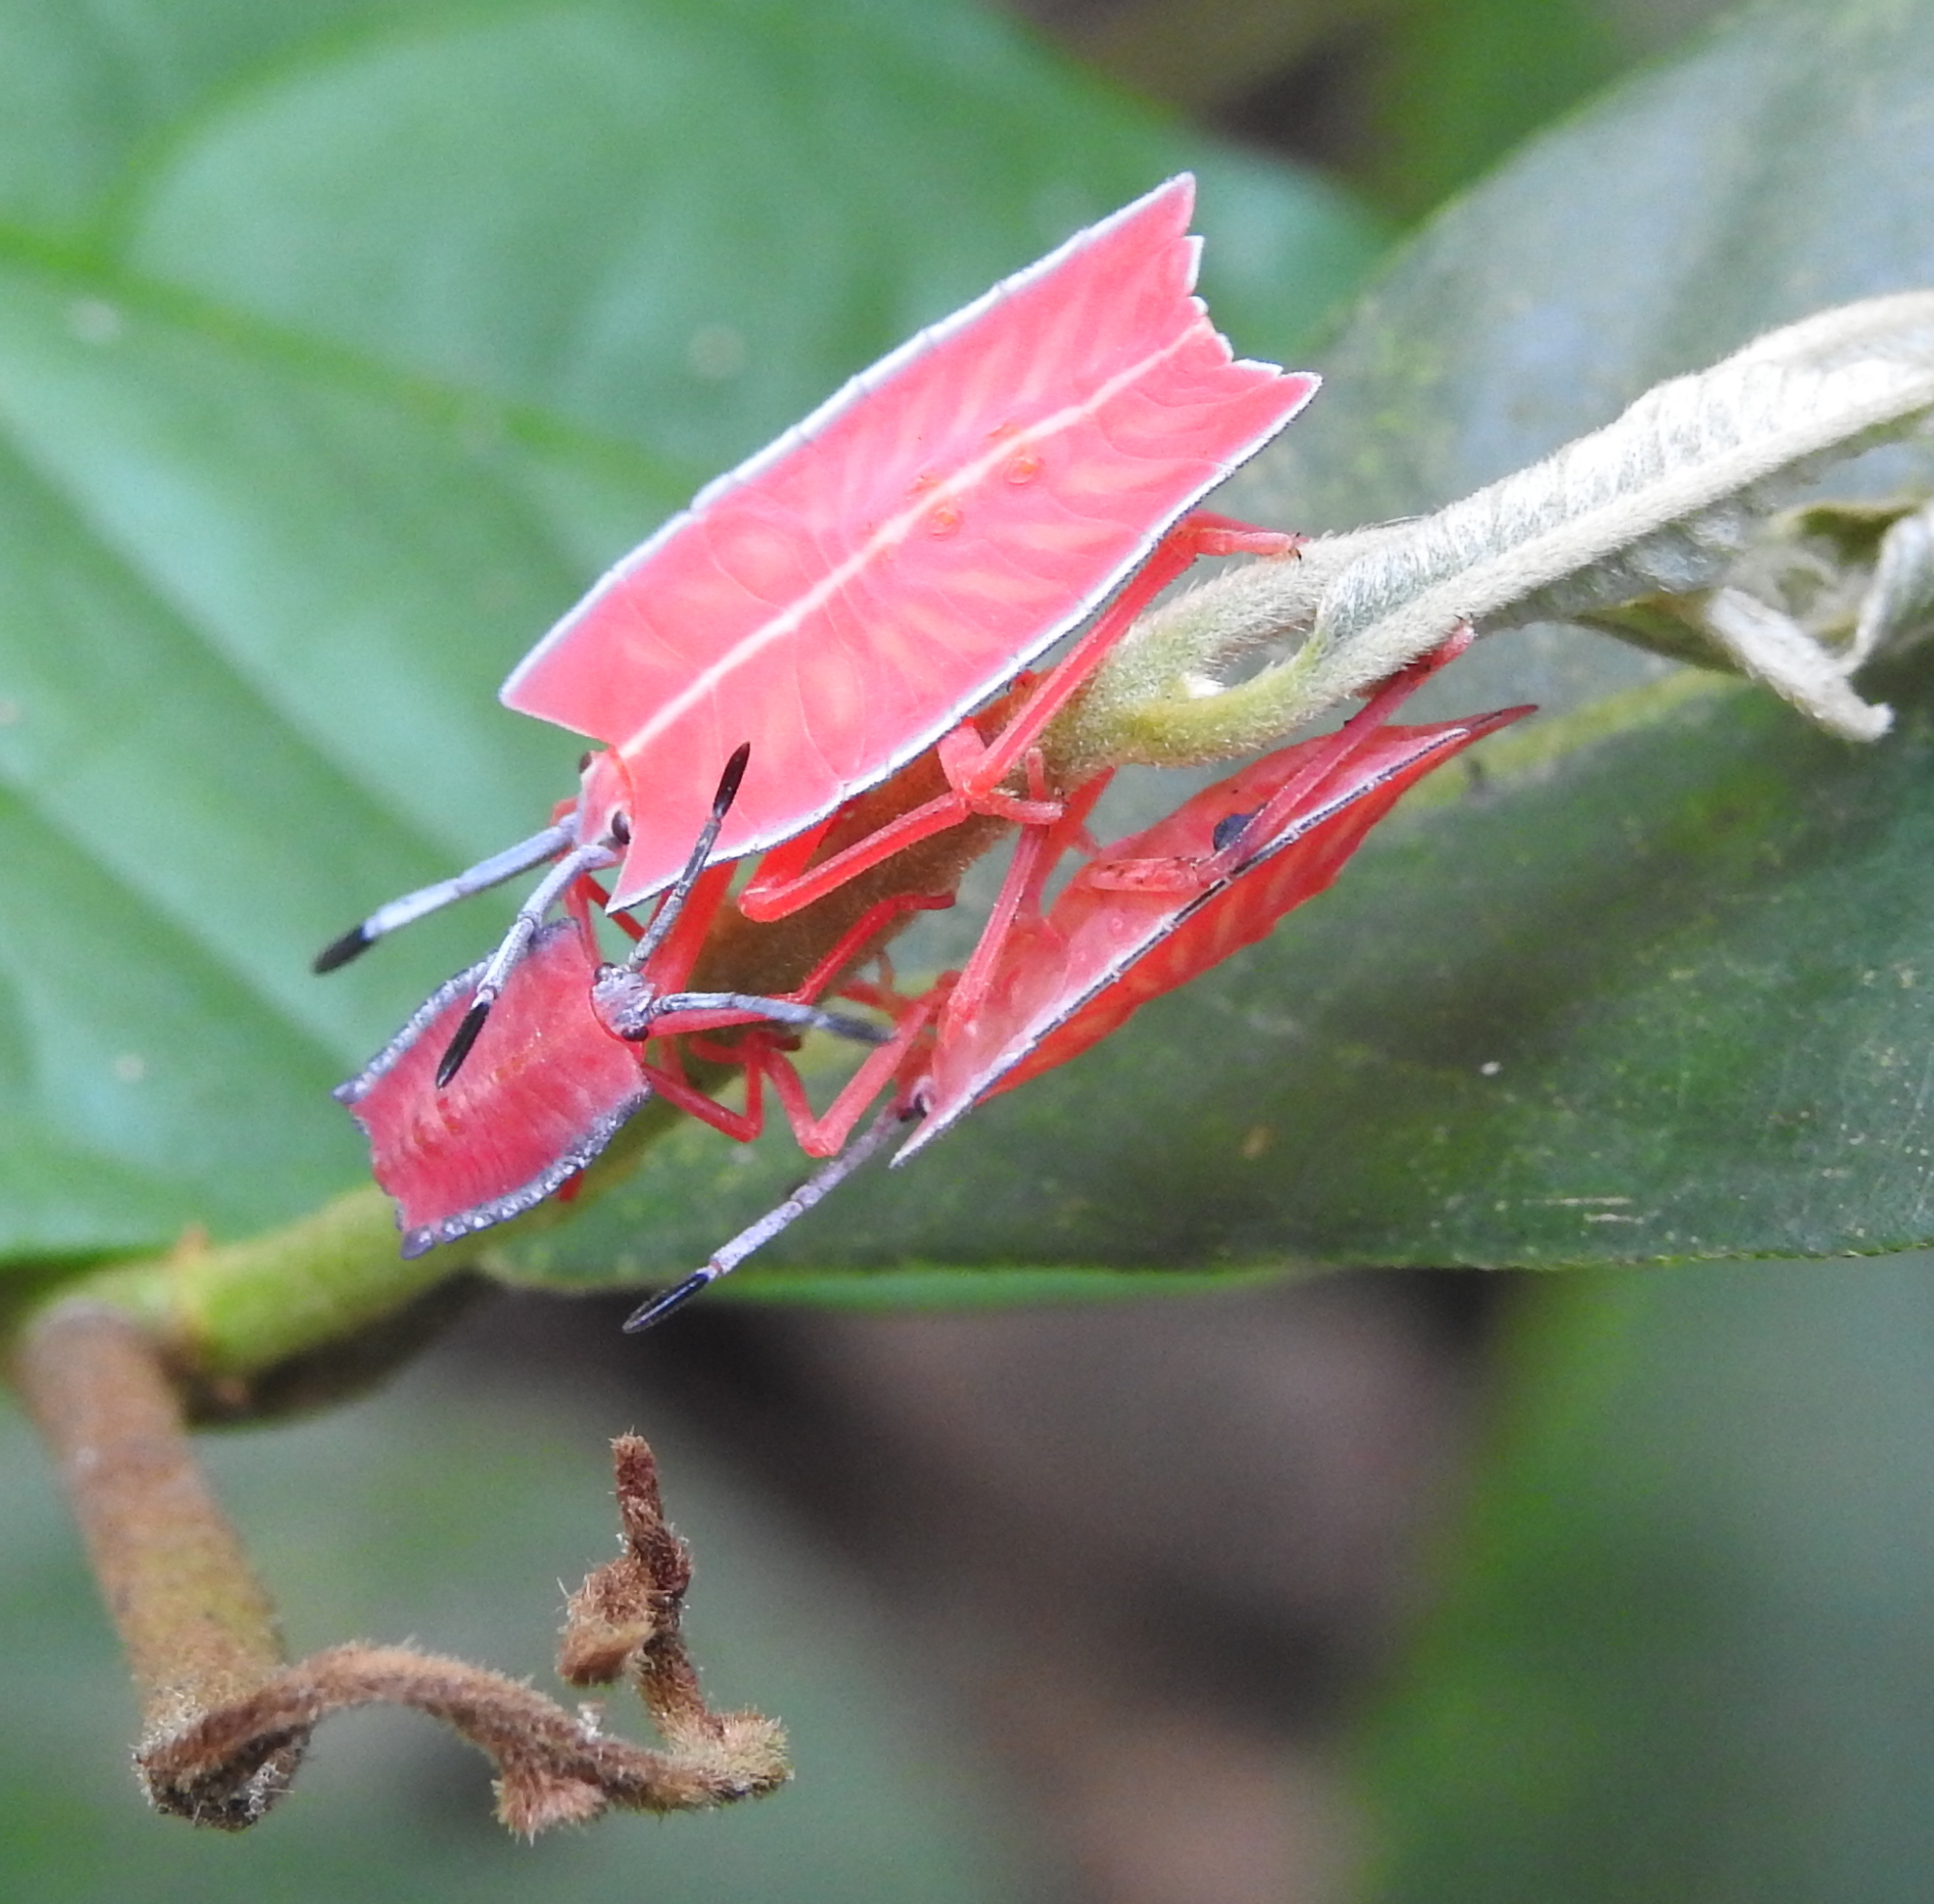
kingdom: Animalia
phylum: Arthropoda
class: Insecta
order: Hemiptera
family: Tessaratomidae
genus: Pycanum
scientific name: Pycanum alternatum
